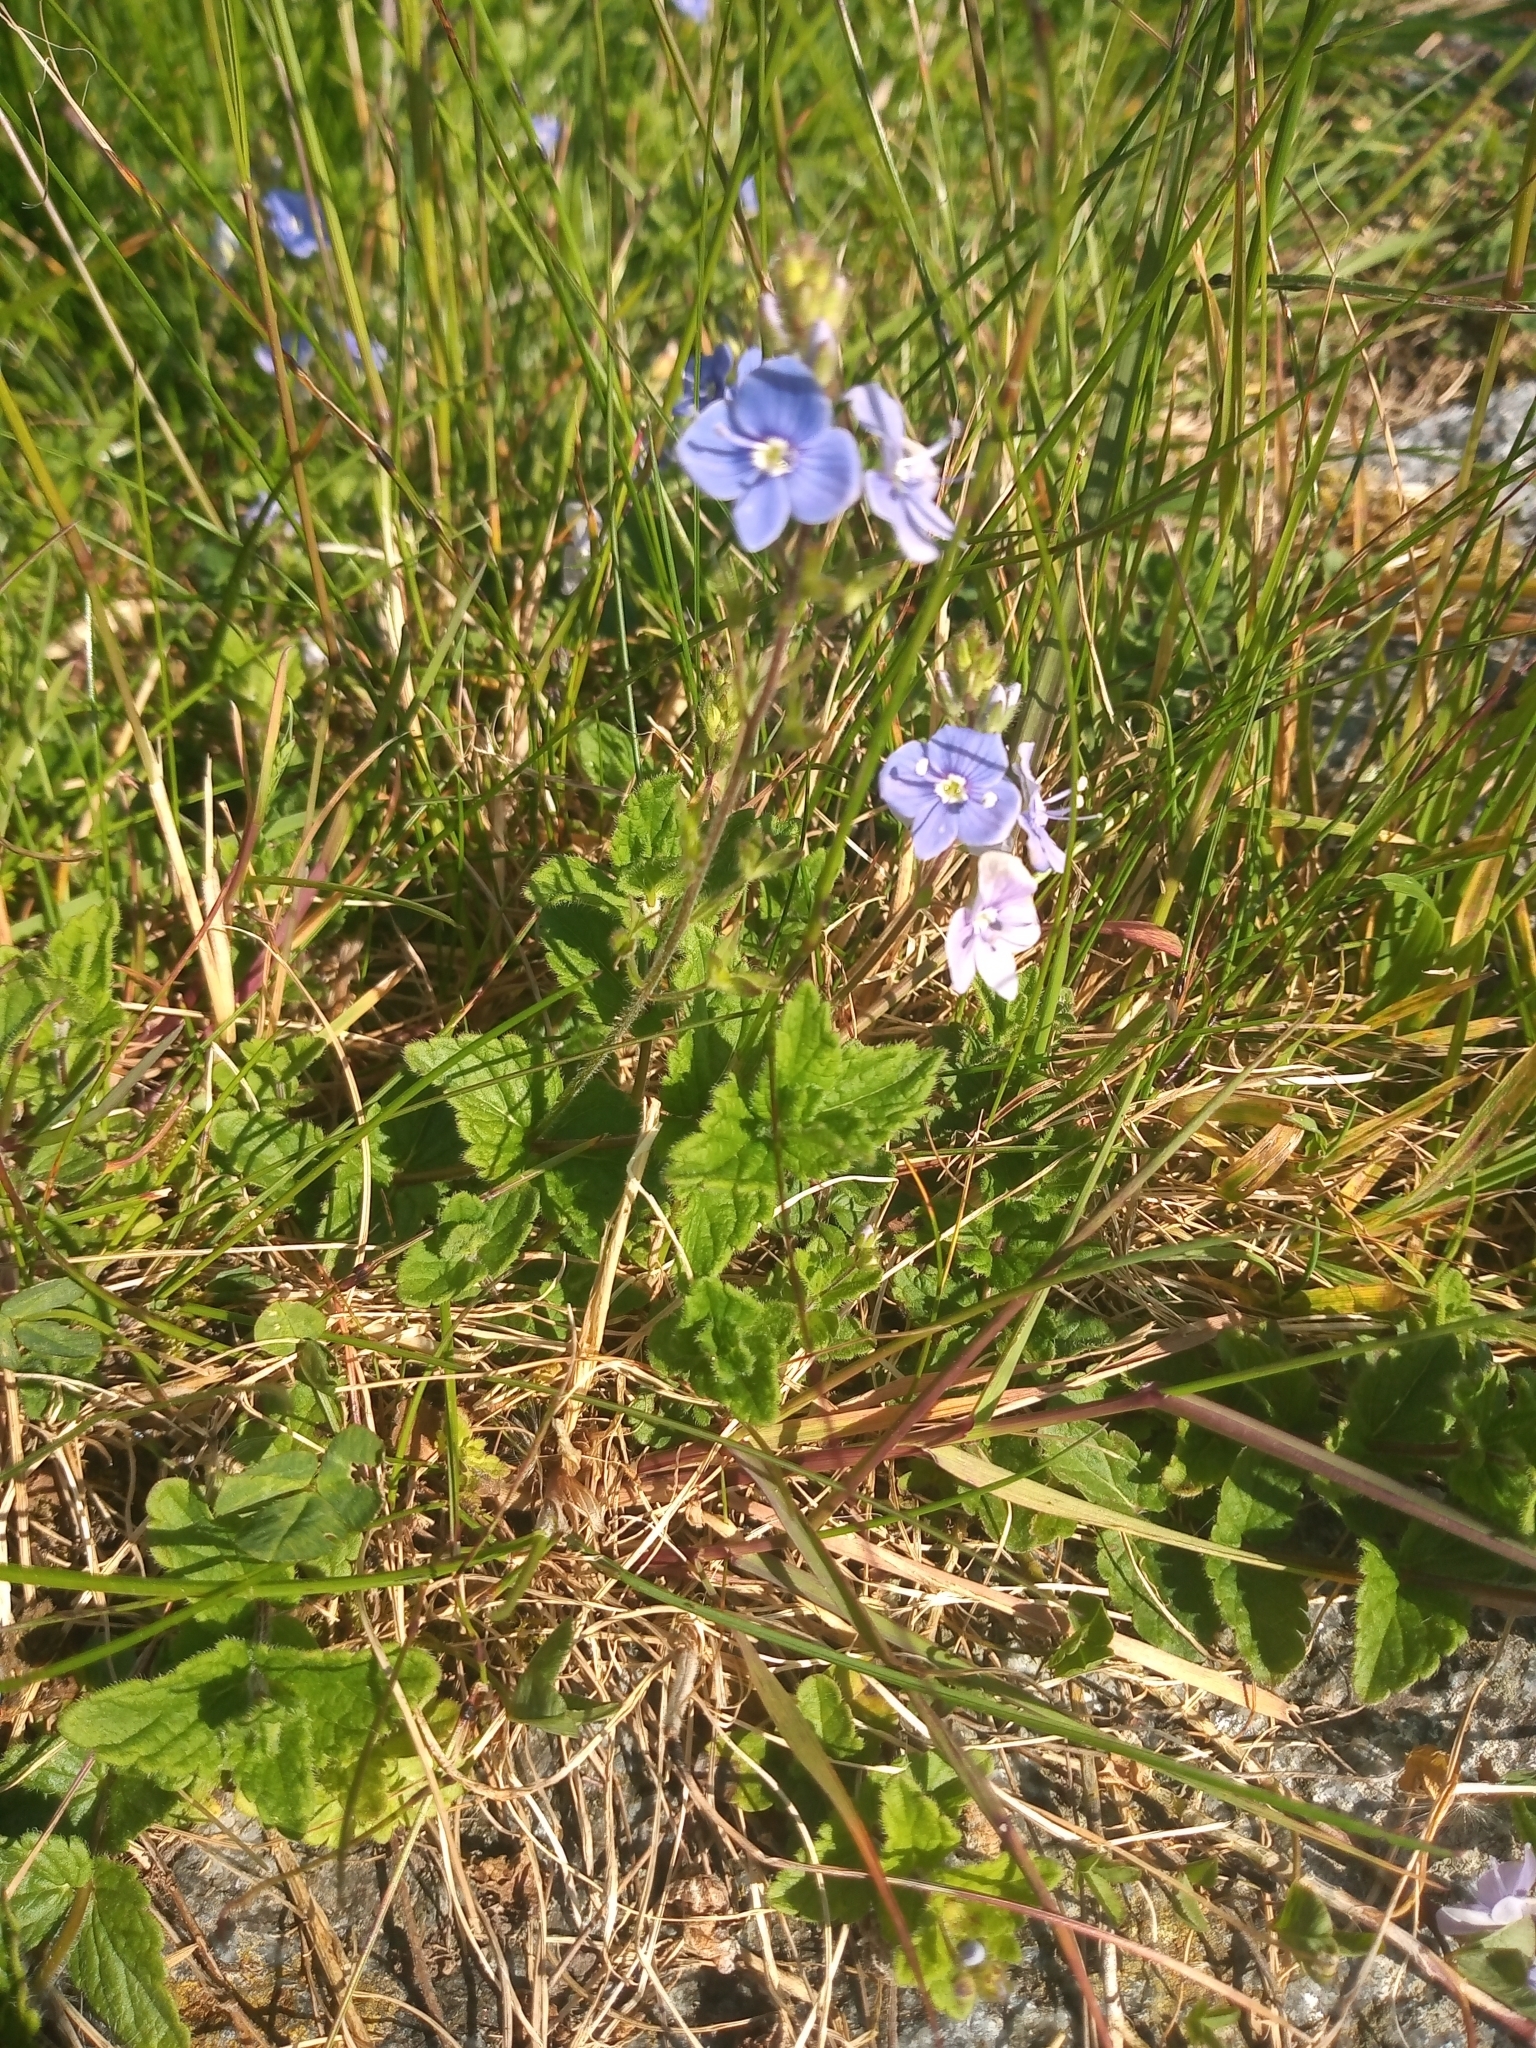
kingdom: Plantae
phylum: Tracheophyta
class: Magnoliopsida
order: Lamiales
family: Plantaginaceae
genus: Veronica
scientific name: Veronica chamaedrys
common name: Germander speedwell
